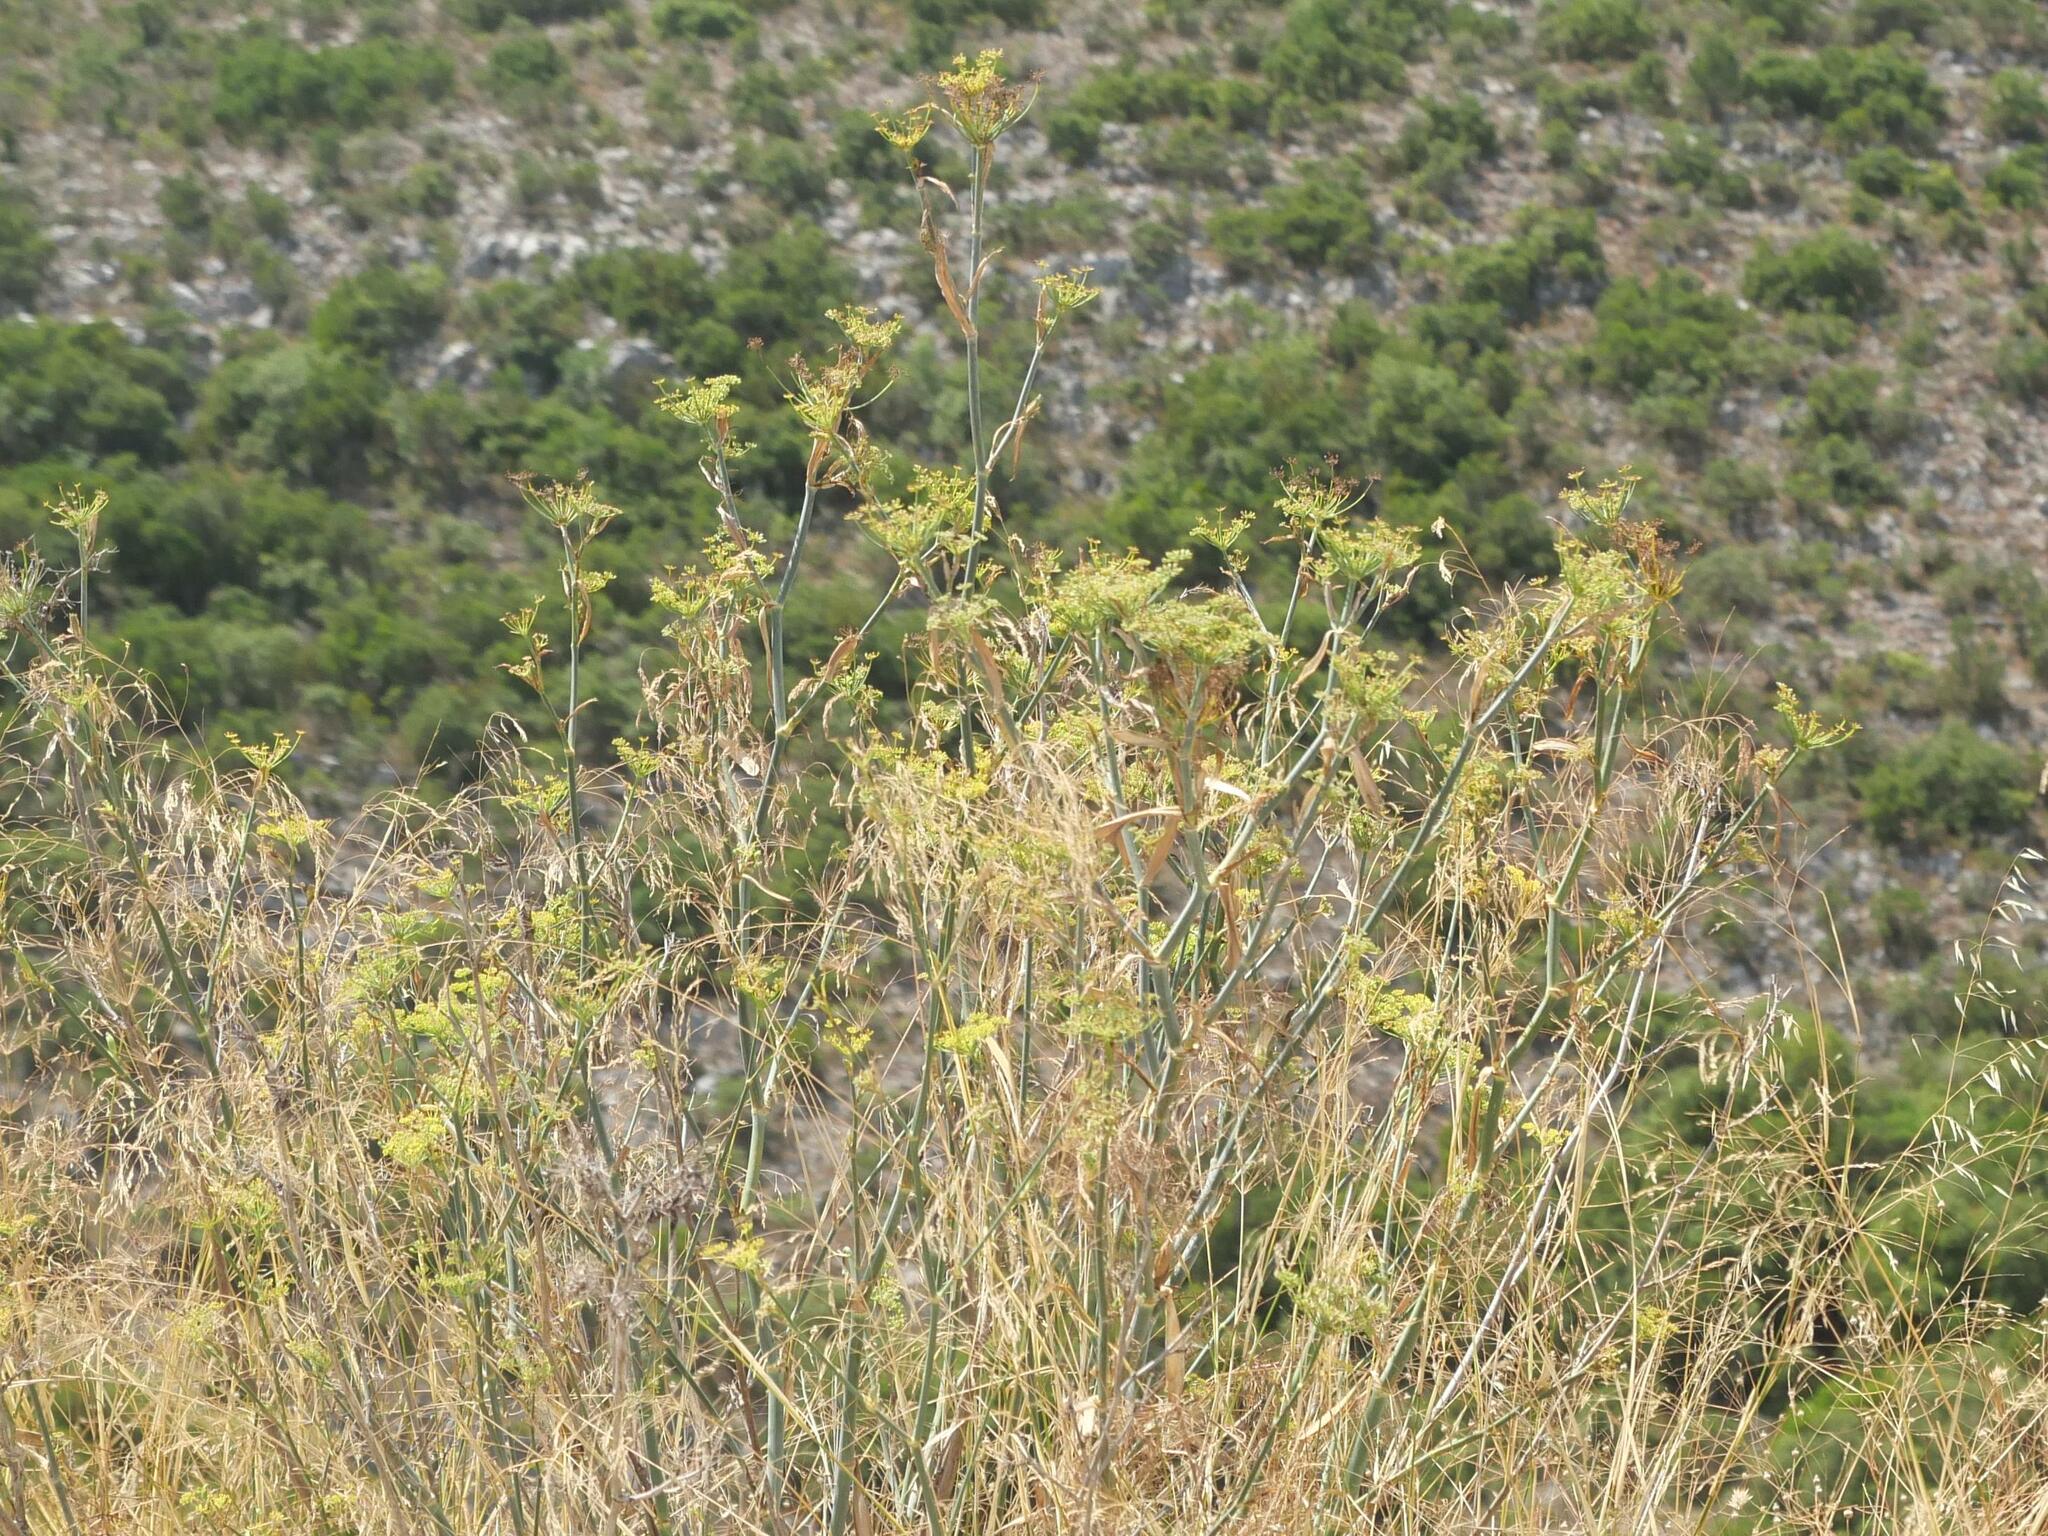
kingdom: Plantae
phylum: Tracheophyta
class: Magnoliopsida
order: Apiales
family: Apiaceae
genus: Foeniculum
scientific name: Foeniculum vulgare
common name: Fennel
